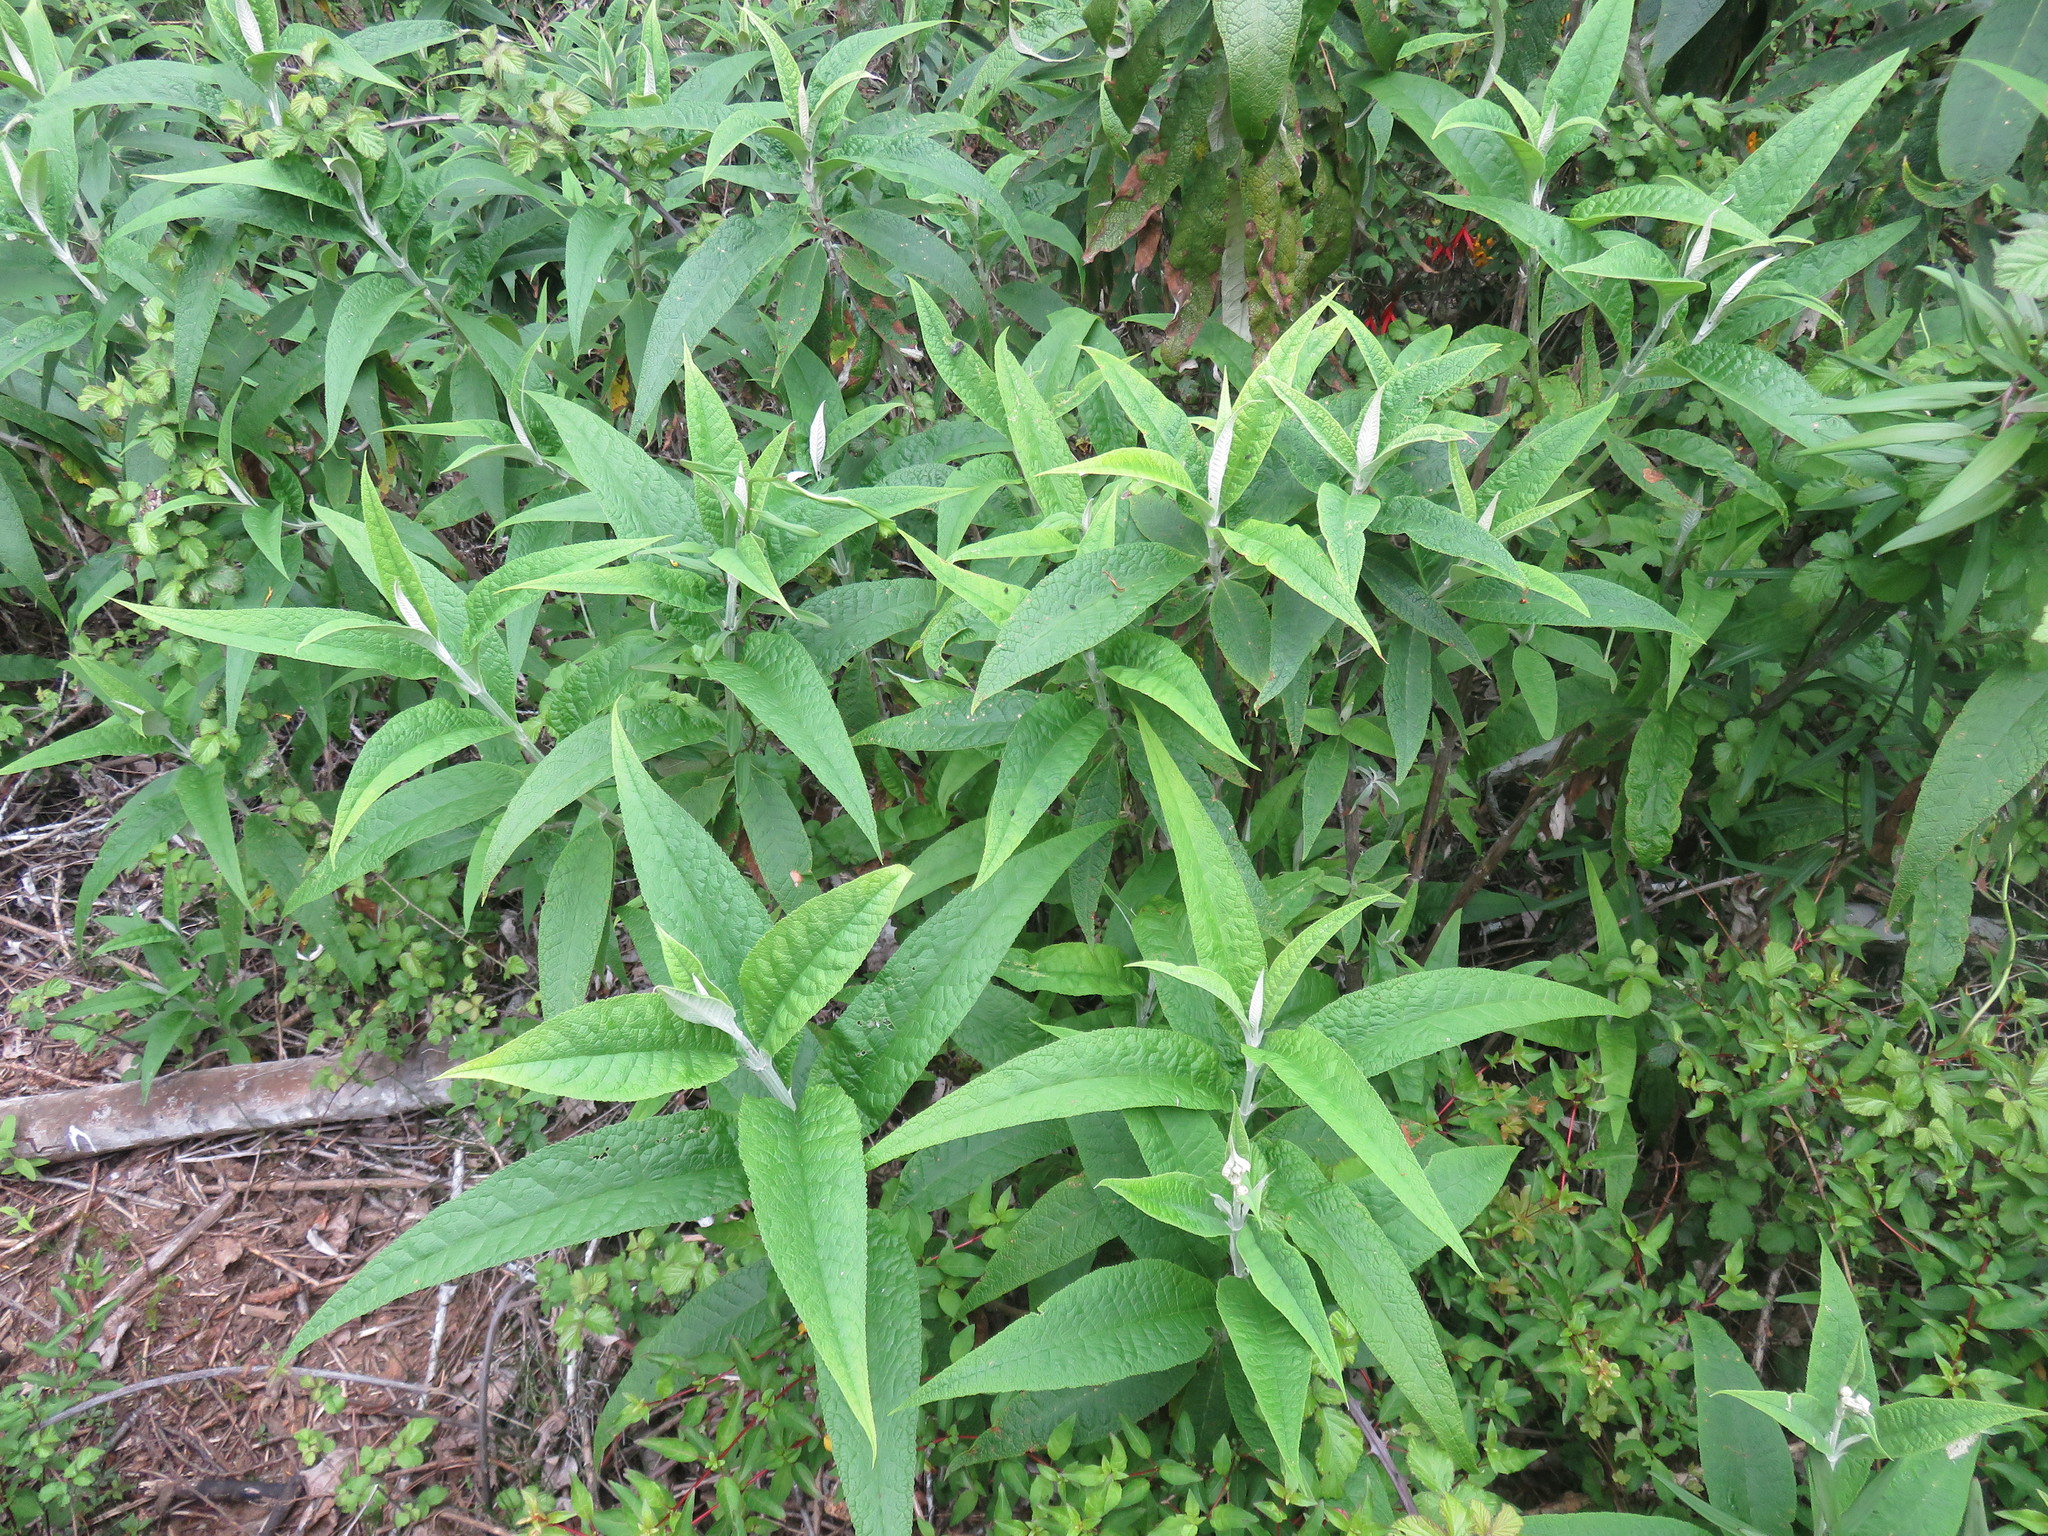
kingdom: Plantae
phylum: Tracheophyta
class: Magnoliopsida
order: Lamiales
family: Scrophulariaceae
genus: Buddleja
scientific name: Buddleja globosa
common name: Orange-ball-tree
